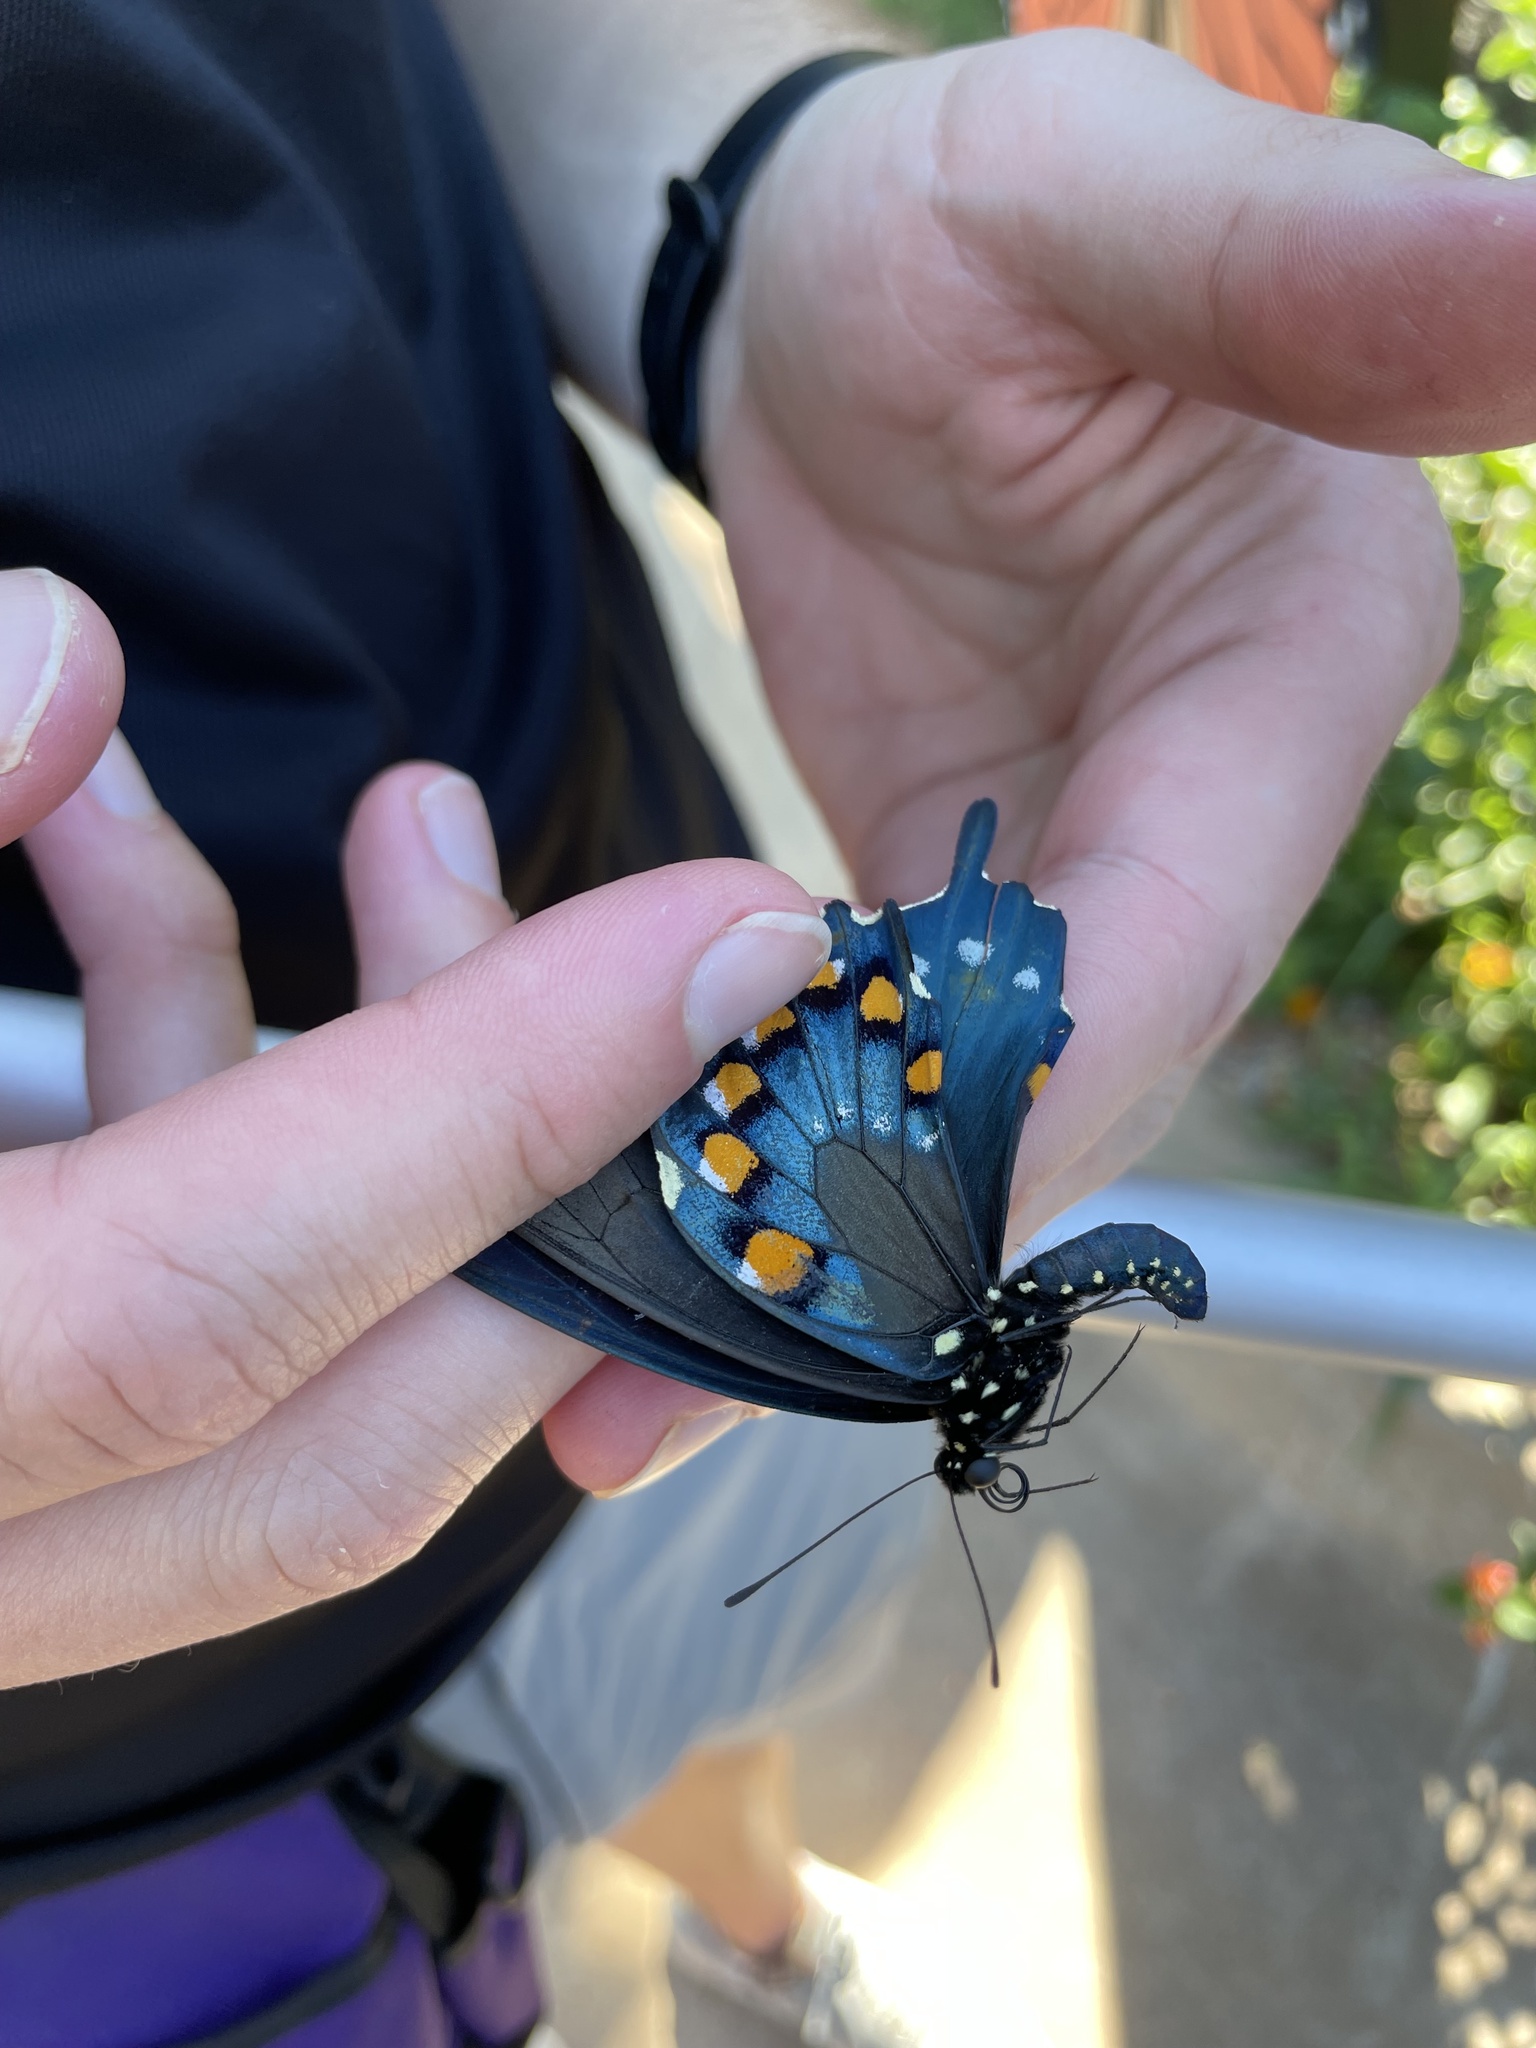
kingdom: Animalia
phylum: Arthropoda
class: Insecta
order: Lepidoptera
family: Papilionidae
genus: Battus
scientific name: Battus philenor
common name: Pipevine swallowtail
